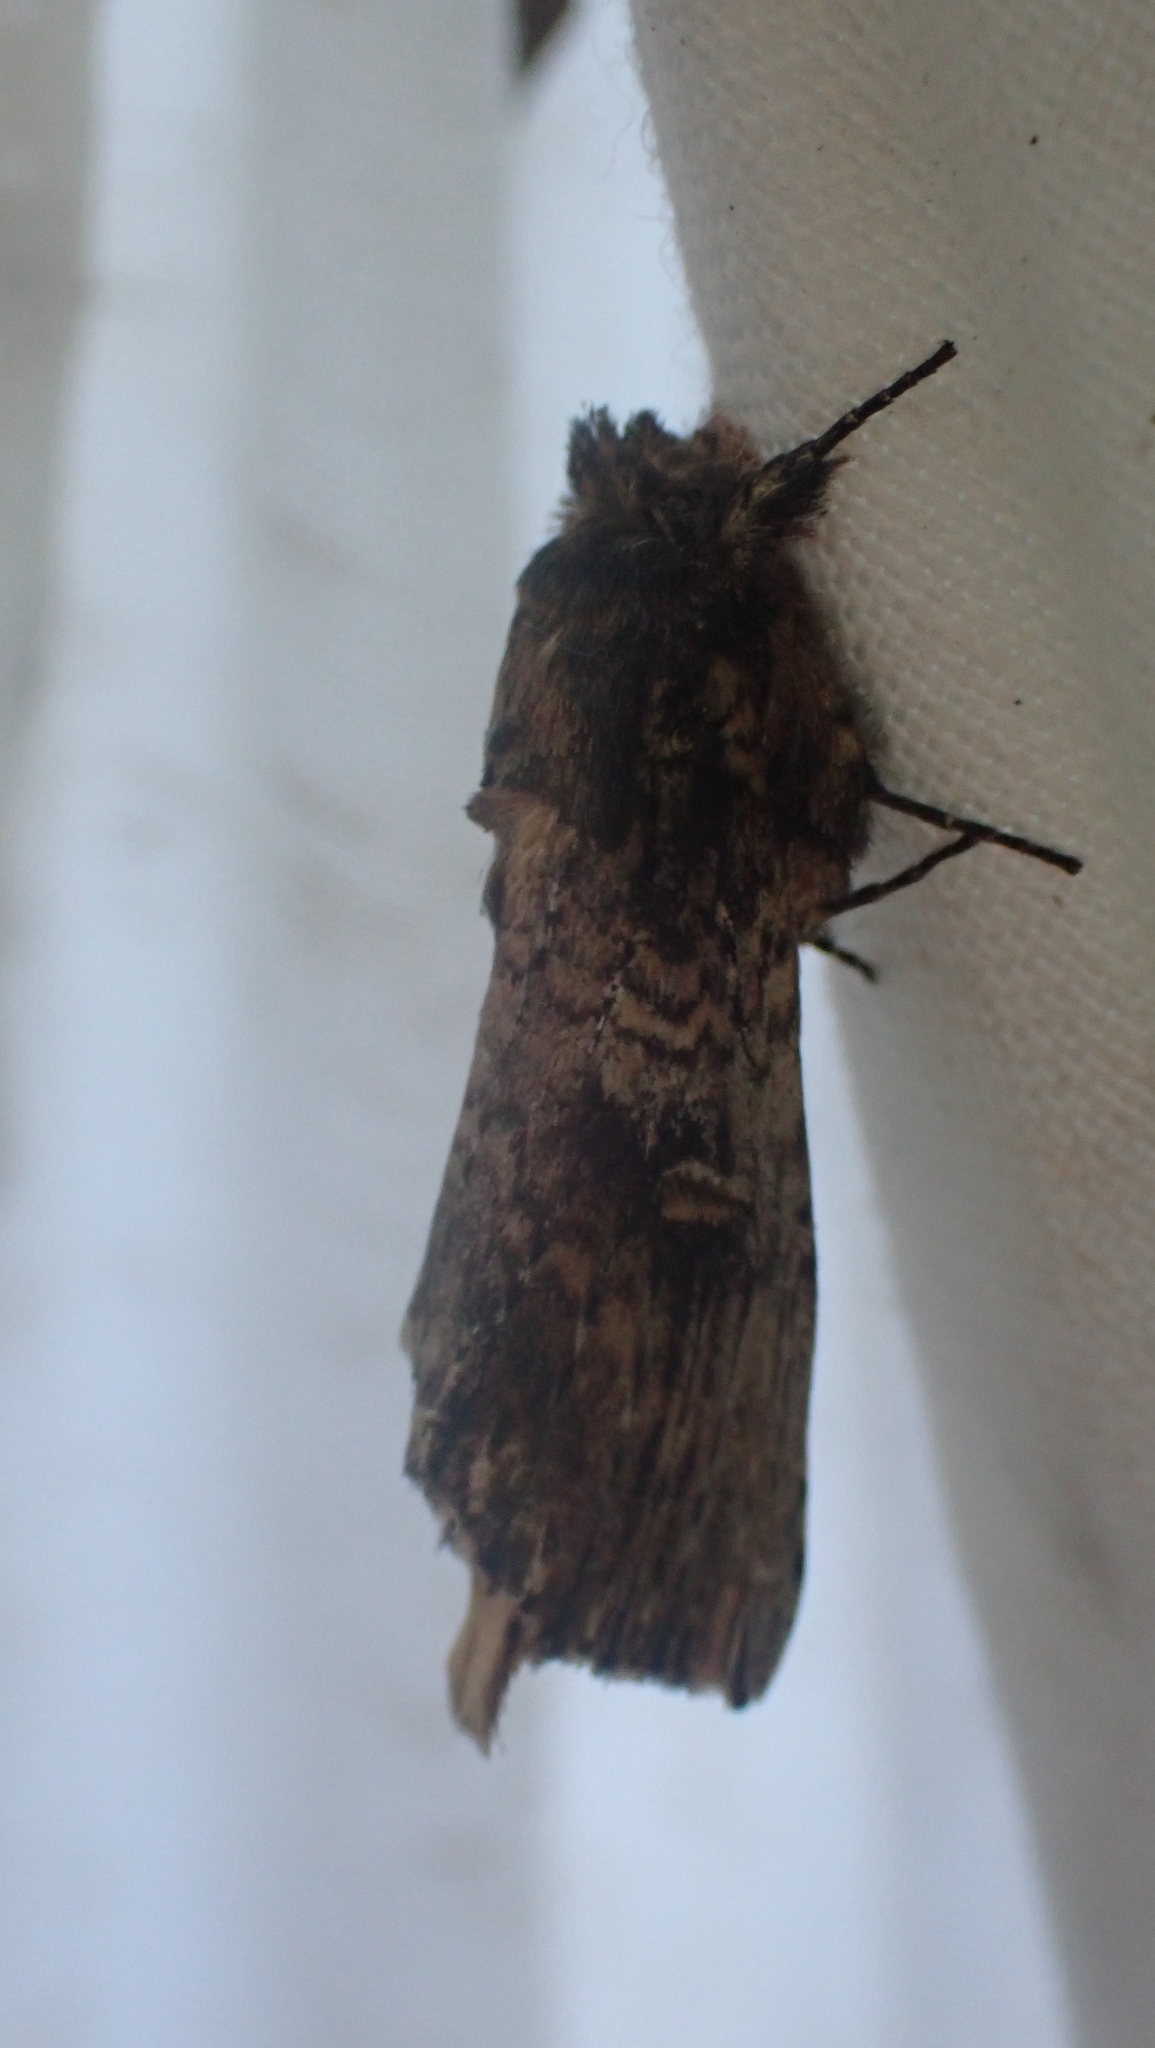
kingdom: Animalia
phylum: Arthropoda
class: Insecta
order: Lepidoptera
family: Notodontidae
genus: Schizura
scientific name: Schizura ipomaeae
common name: Morning-glory prominent
